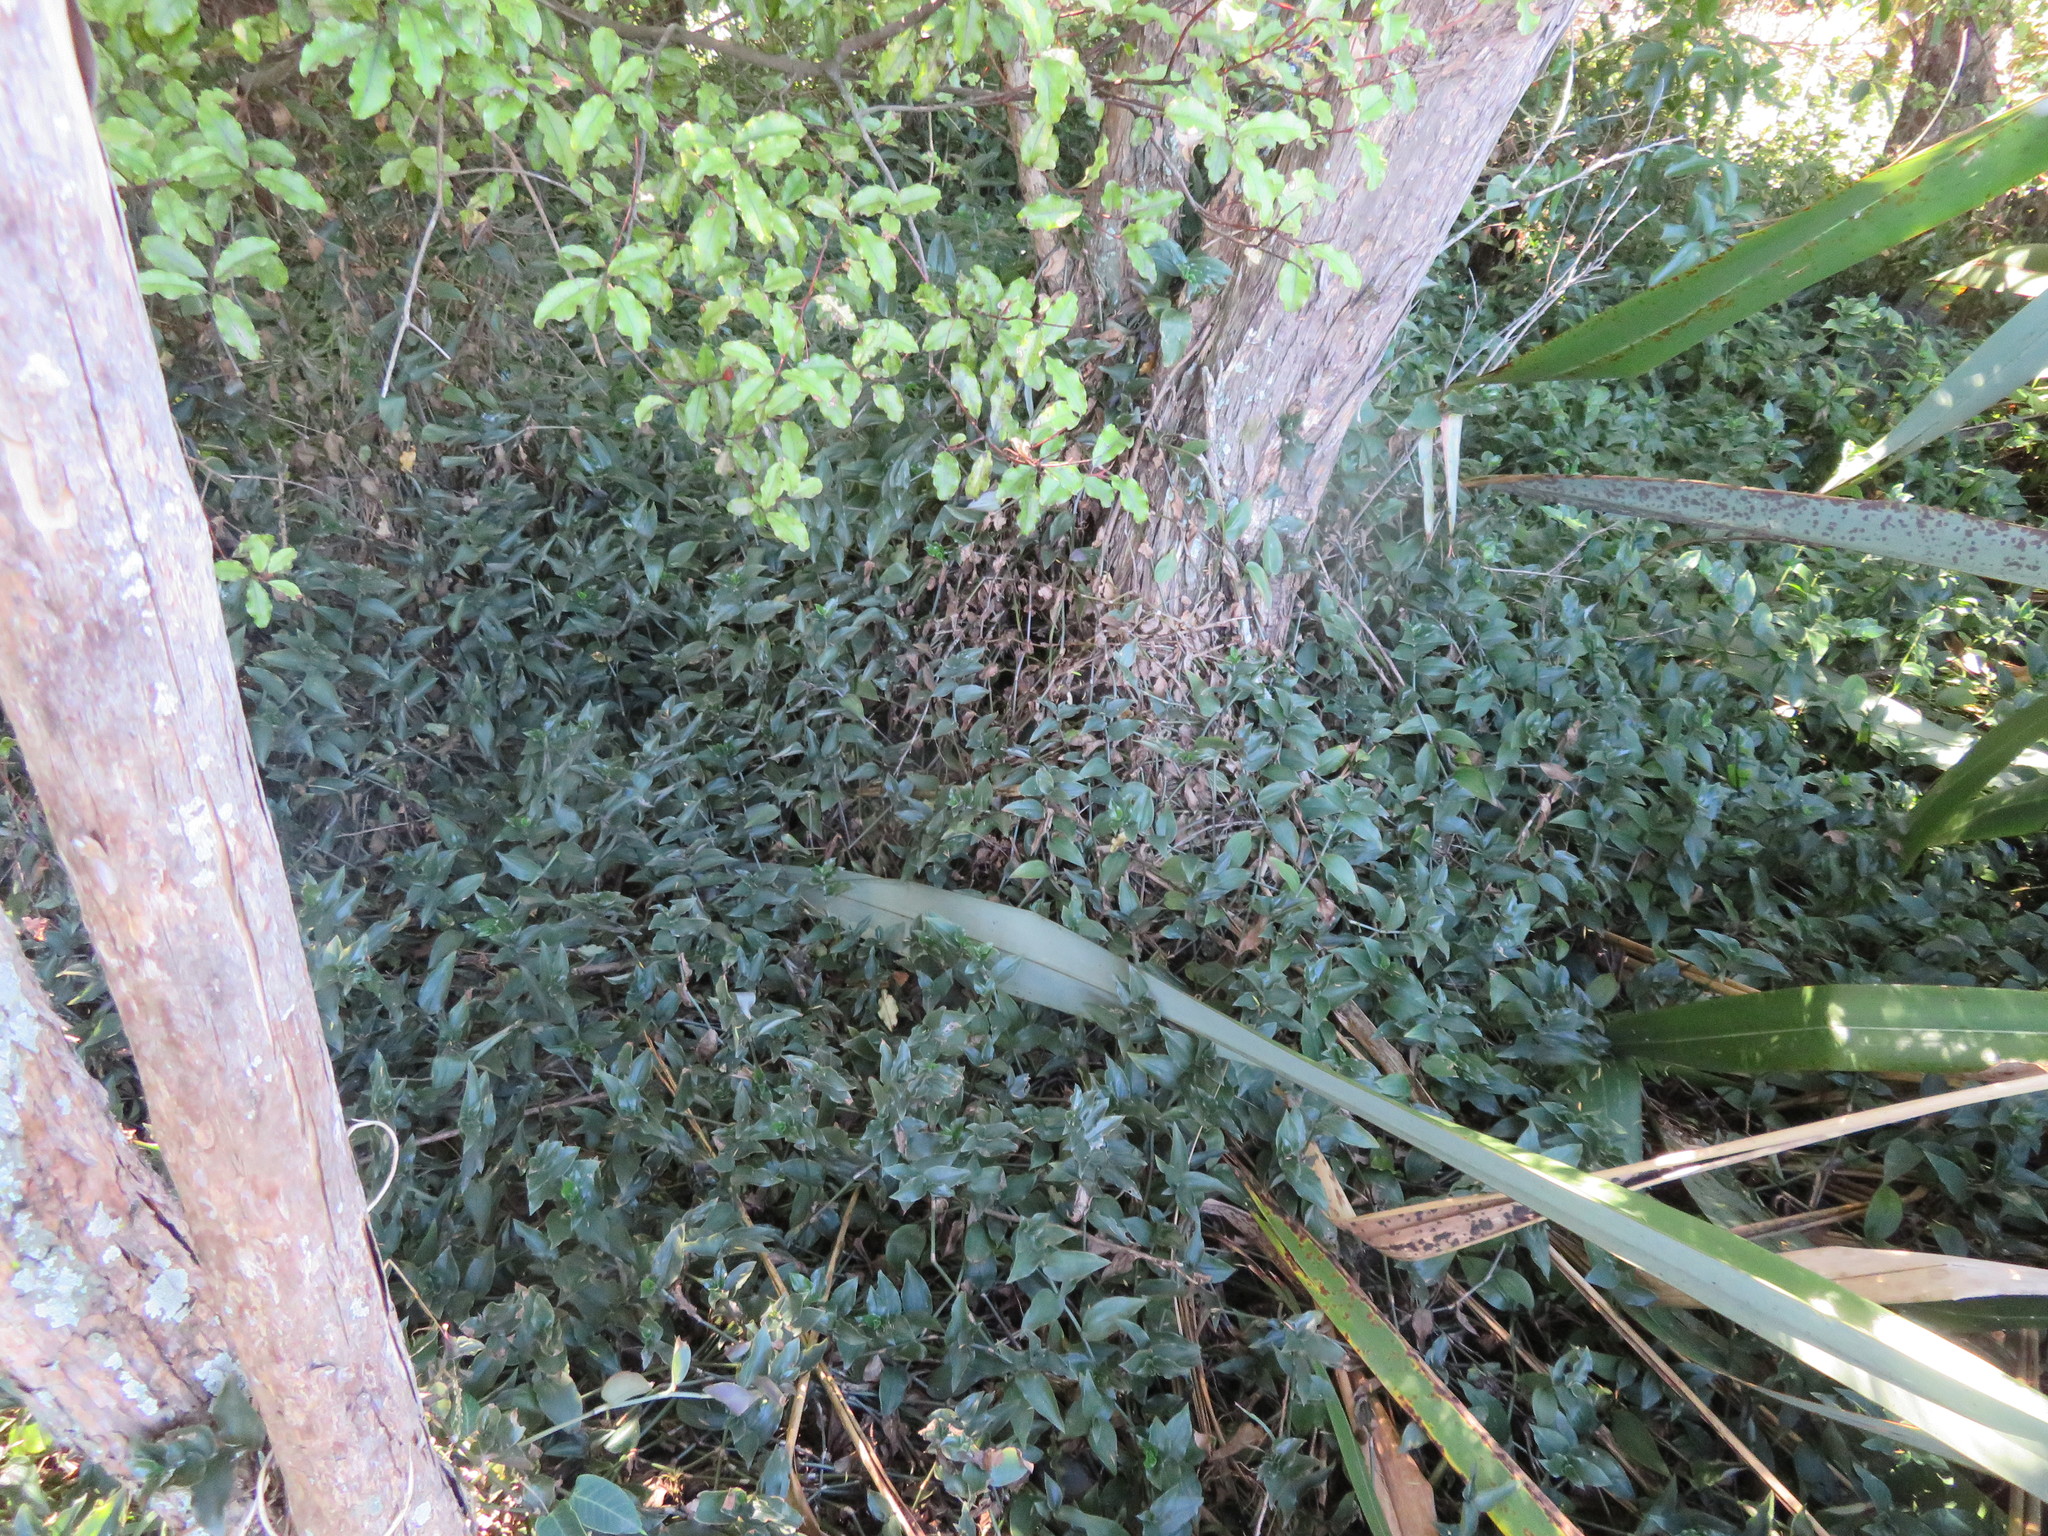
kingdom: Plantae
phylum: Tracheophyta
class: Liliopsida
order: Commelinales
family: Commelinaceae
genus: Tradescantia
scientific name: Tradescantia fluminensis
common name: Wandering-jew
